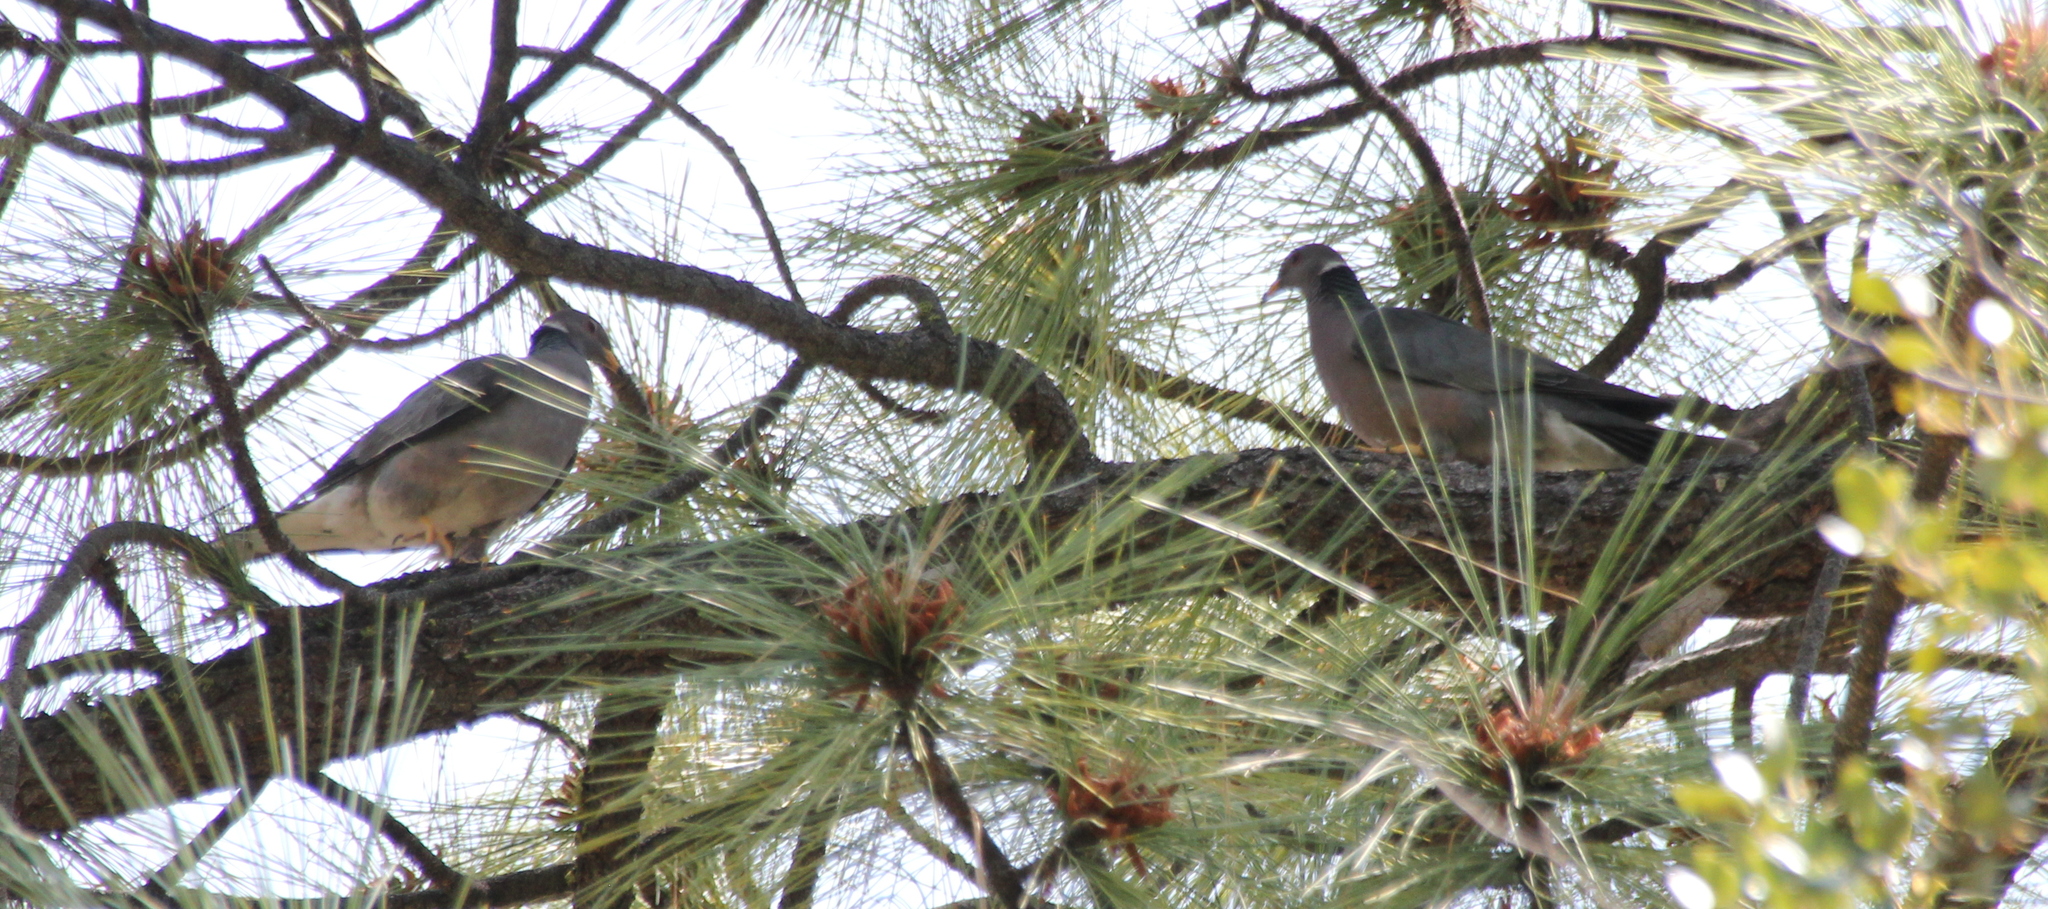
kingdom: Animalia
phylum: Chordata
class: Aves
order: Columbiformes
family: Columbidae
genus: Patagioenas
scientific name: Patagioenas fasciata
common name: Band-tailed pigeon
